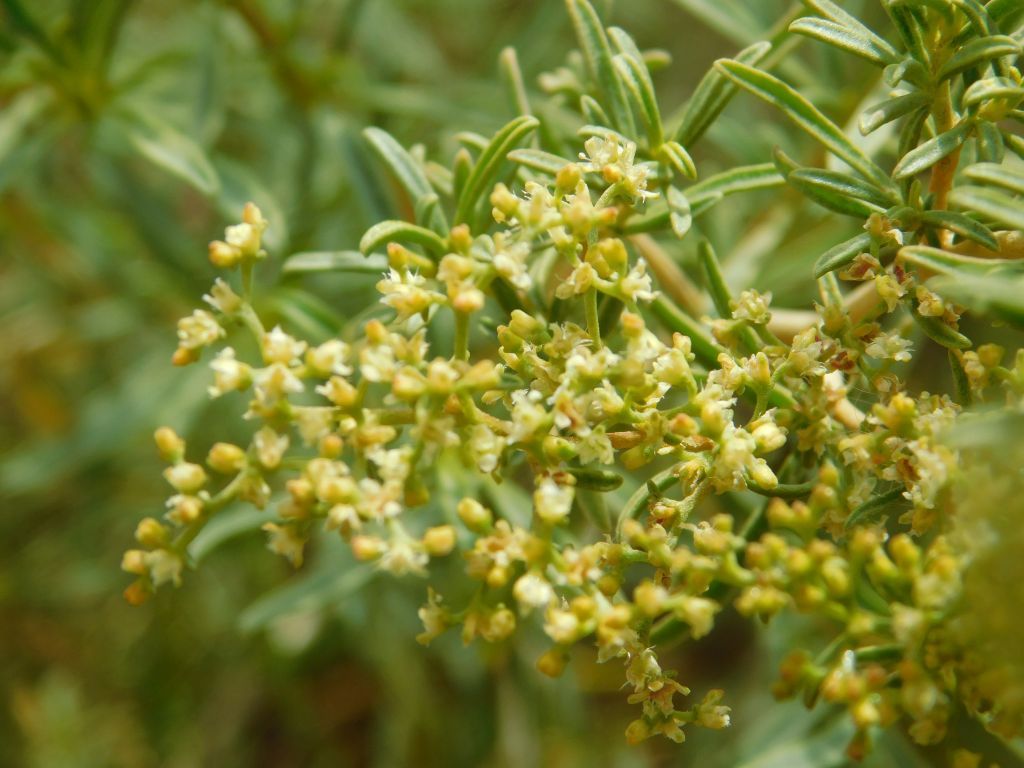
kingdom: Plantae
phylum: Tracheophyta
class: Magnoliopsida
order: Caryophyllales
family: Aizoaceae
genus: Aizoon
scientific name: Aizoon africanum
